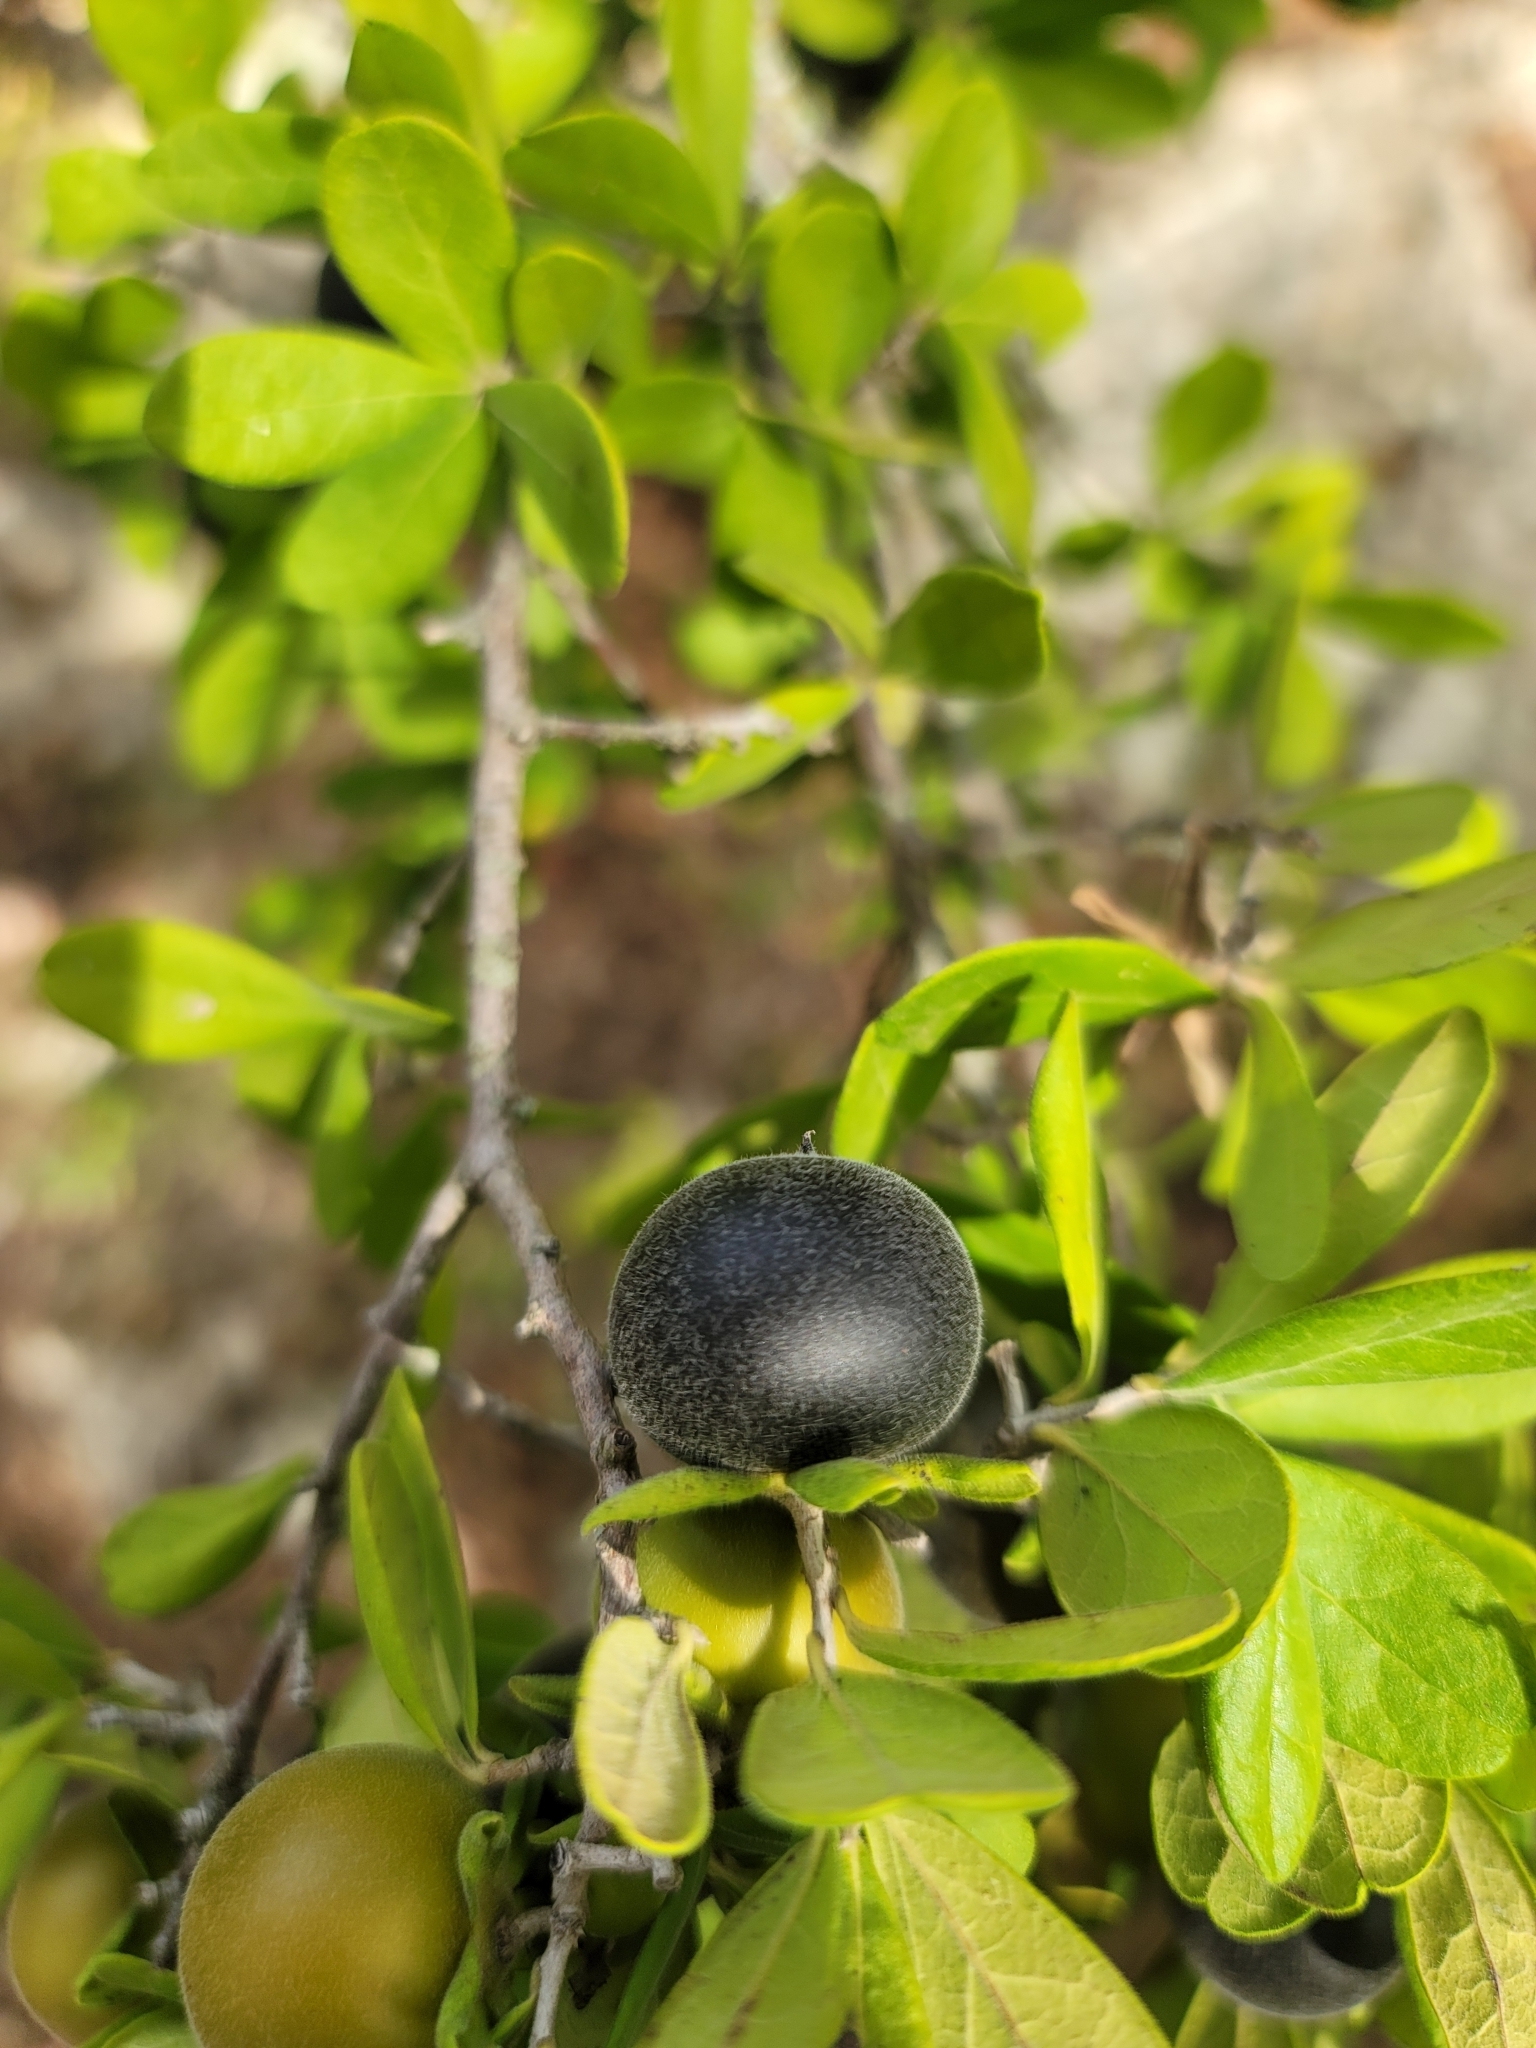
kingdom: Plantae
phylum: Tracheophyta
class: Magnoliopsida
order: Ericales
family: Ebenaceae
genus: Diospyros
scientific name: Diospyros texana
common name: Texas persimmon
